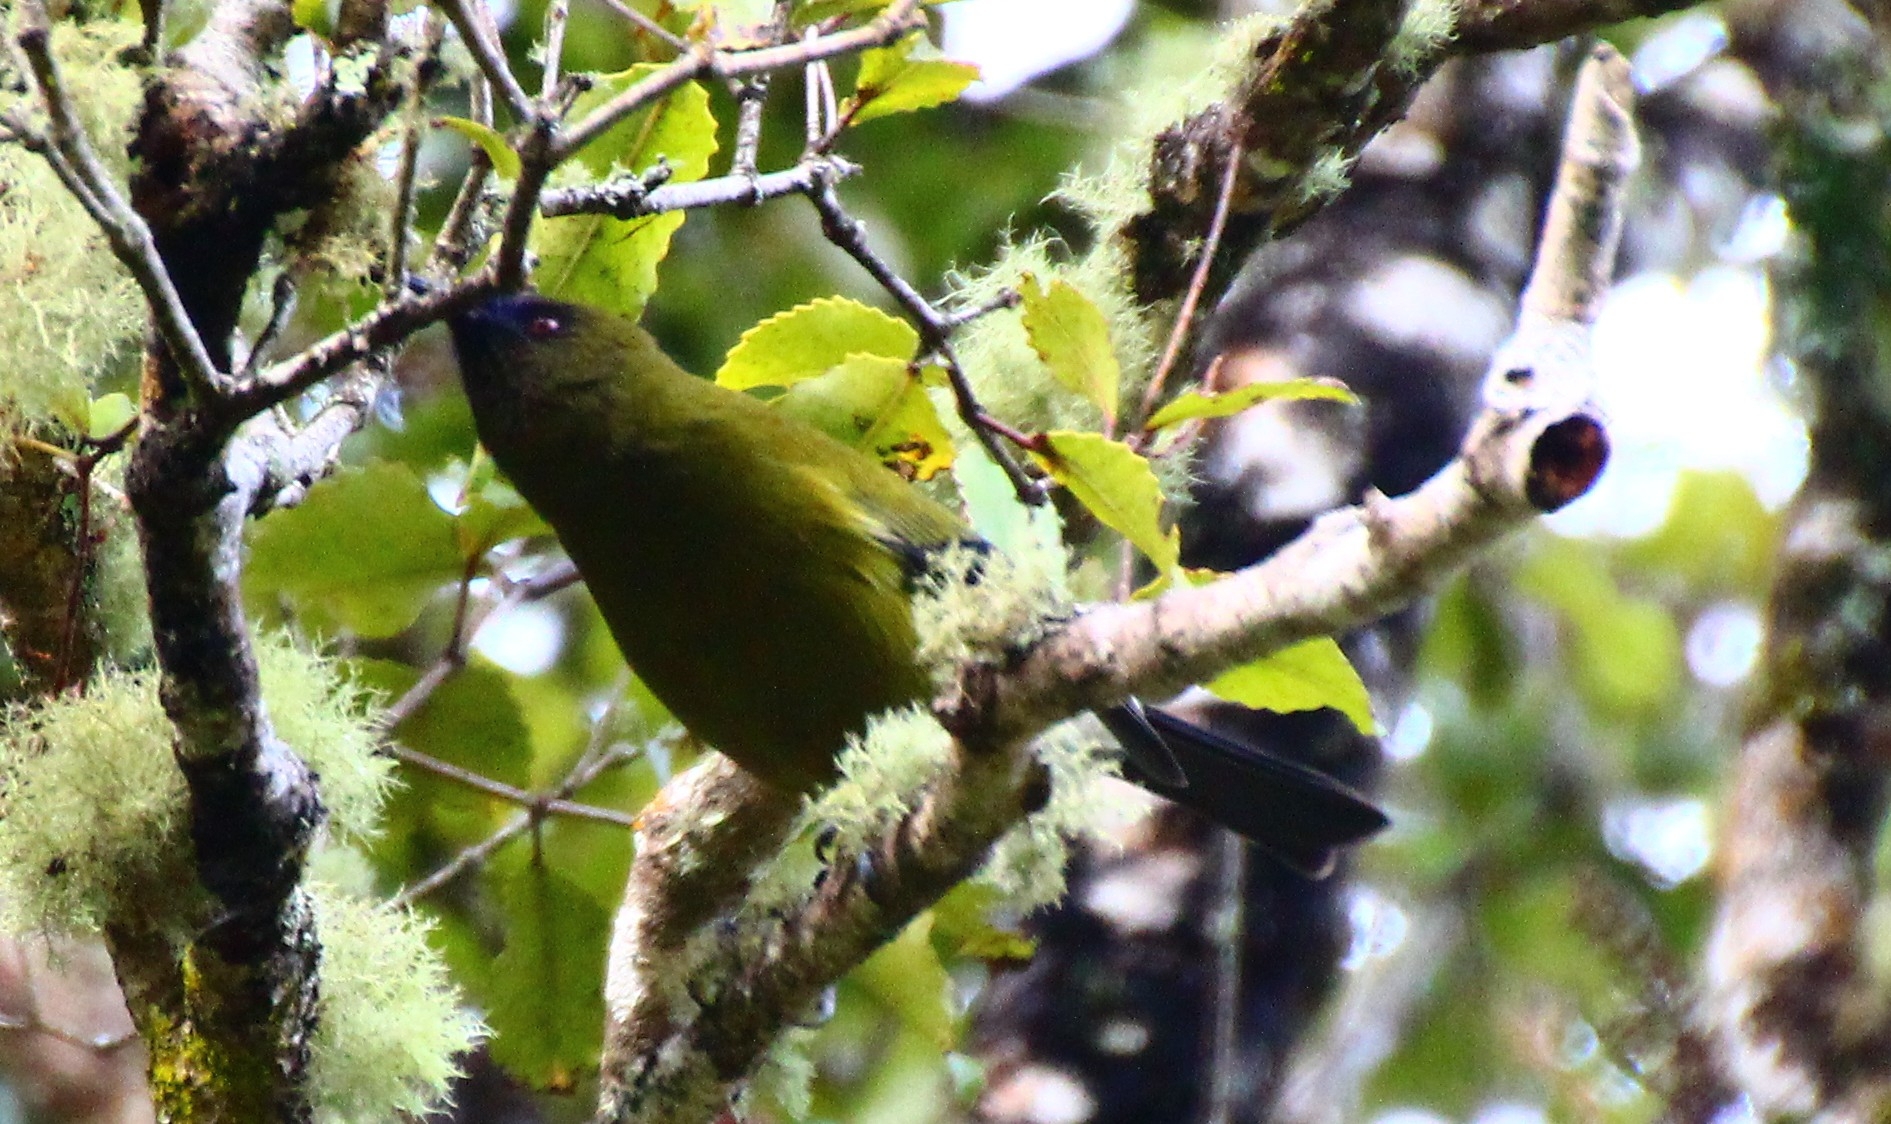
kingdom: Animalia
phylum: Chordata
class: Aves
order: Passeriformes
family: Meliphagidae
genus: Anthornis
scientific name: Anthornis melanura
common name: New zealand bellbird
